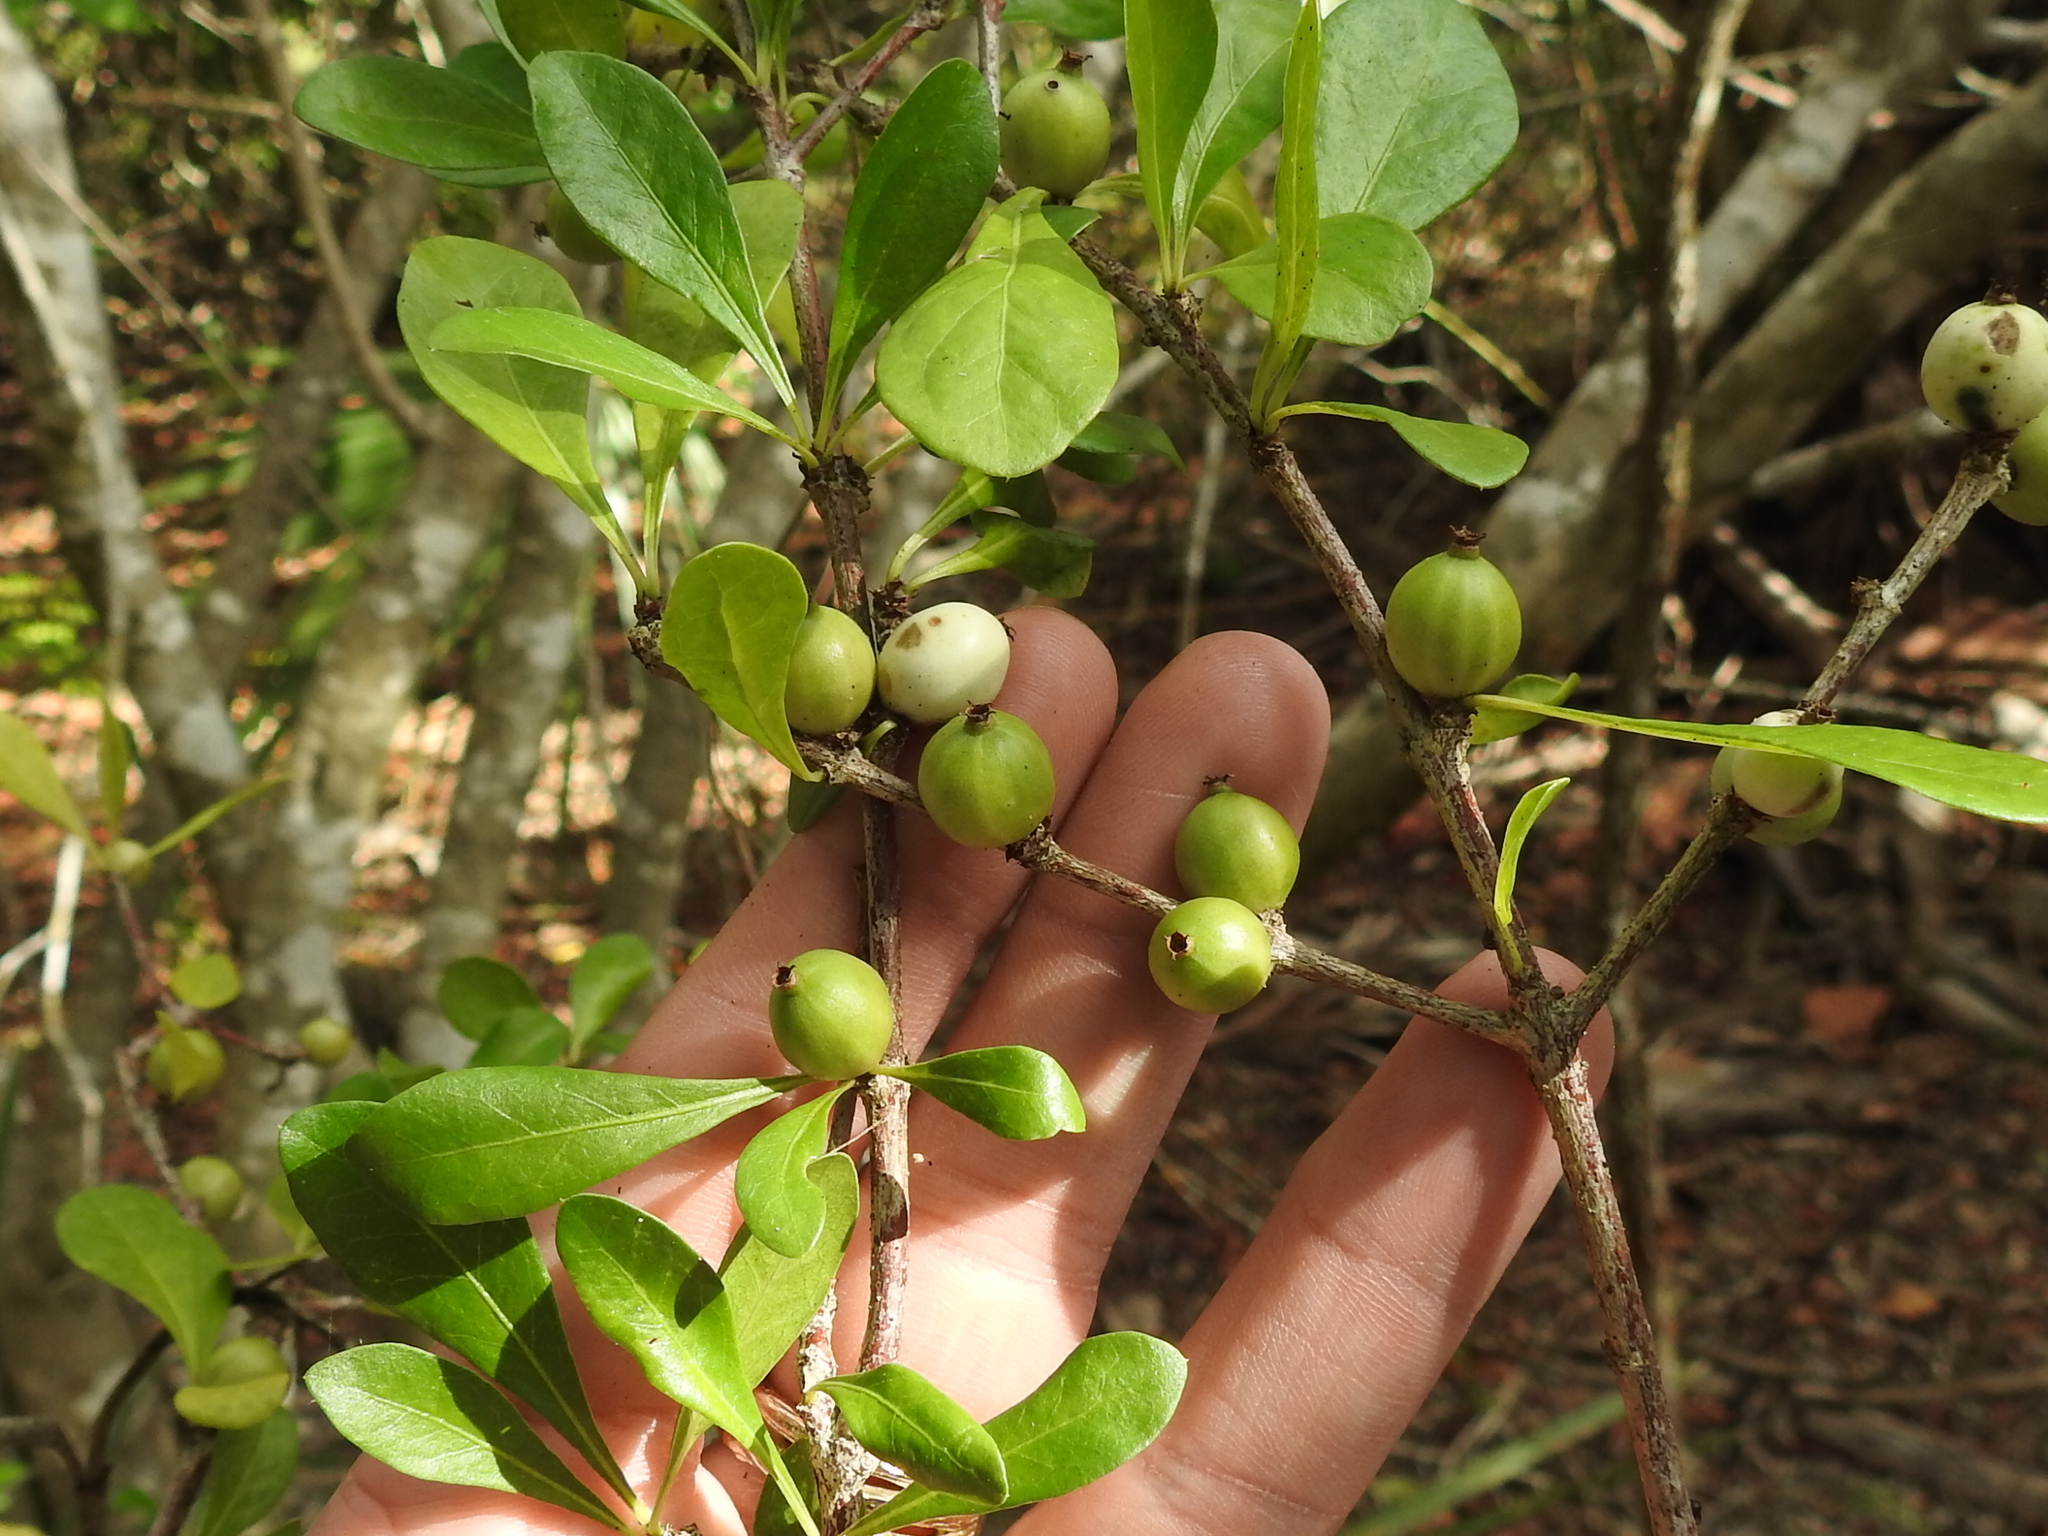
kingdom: Plantae
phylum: Tracheophyta
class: Magnoliopsida
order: Gentianales
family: Rubiaceae
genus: Randia
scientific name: Randia aculeata
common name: Inkberry
